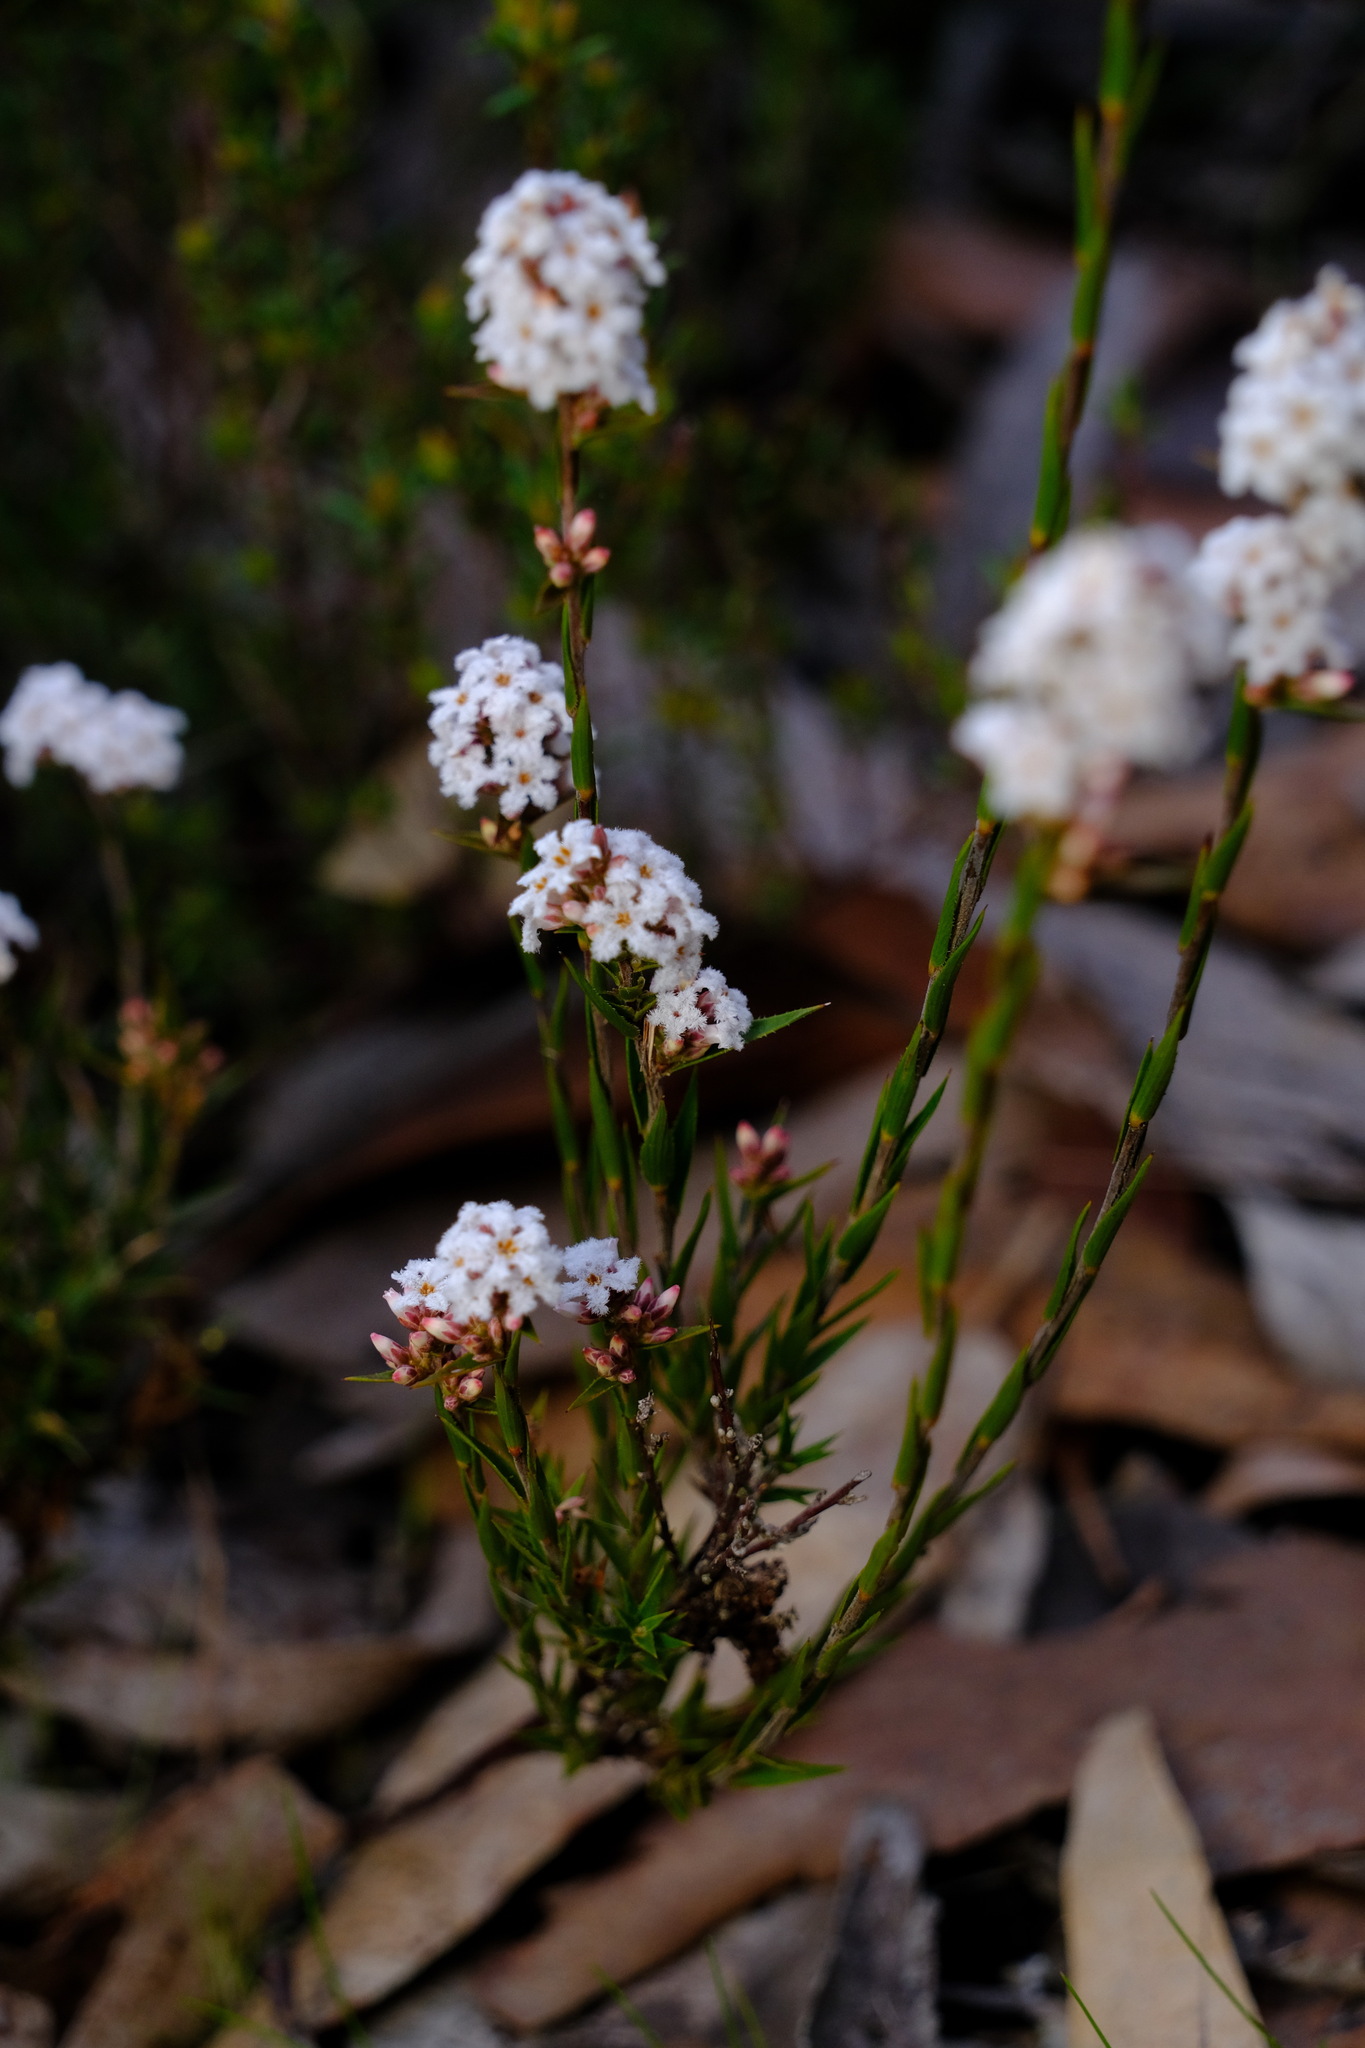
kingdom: Plantae
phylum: Tracheophyta
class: Magnoliopsida
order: Ericales
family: Ericaceae
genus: Leucopogon
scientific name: Leucopogon virgatus
